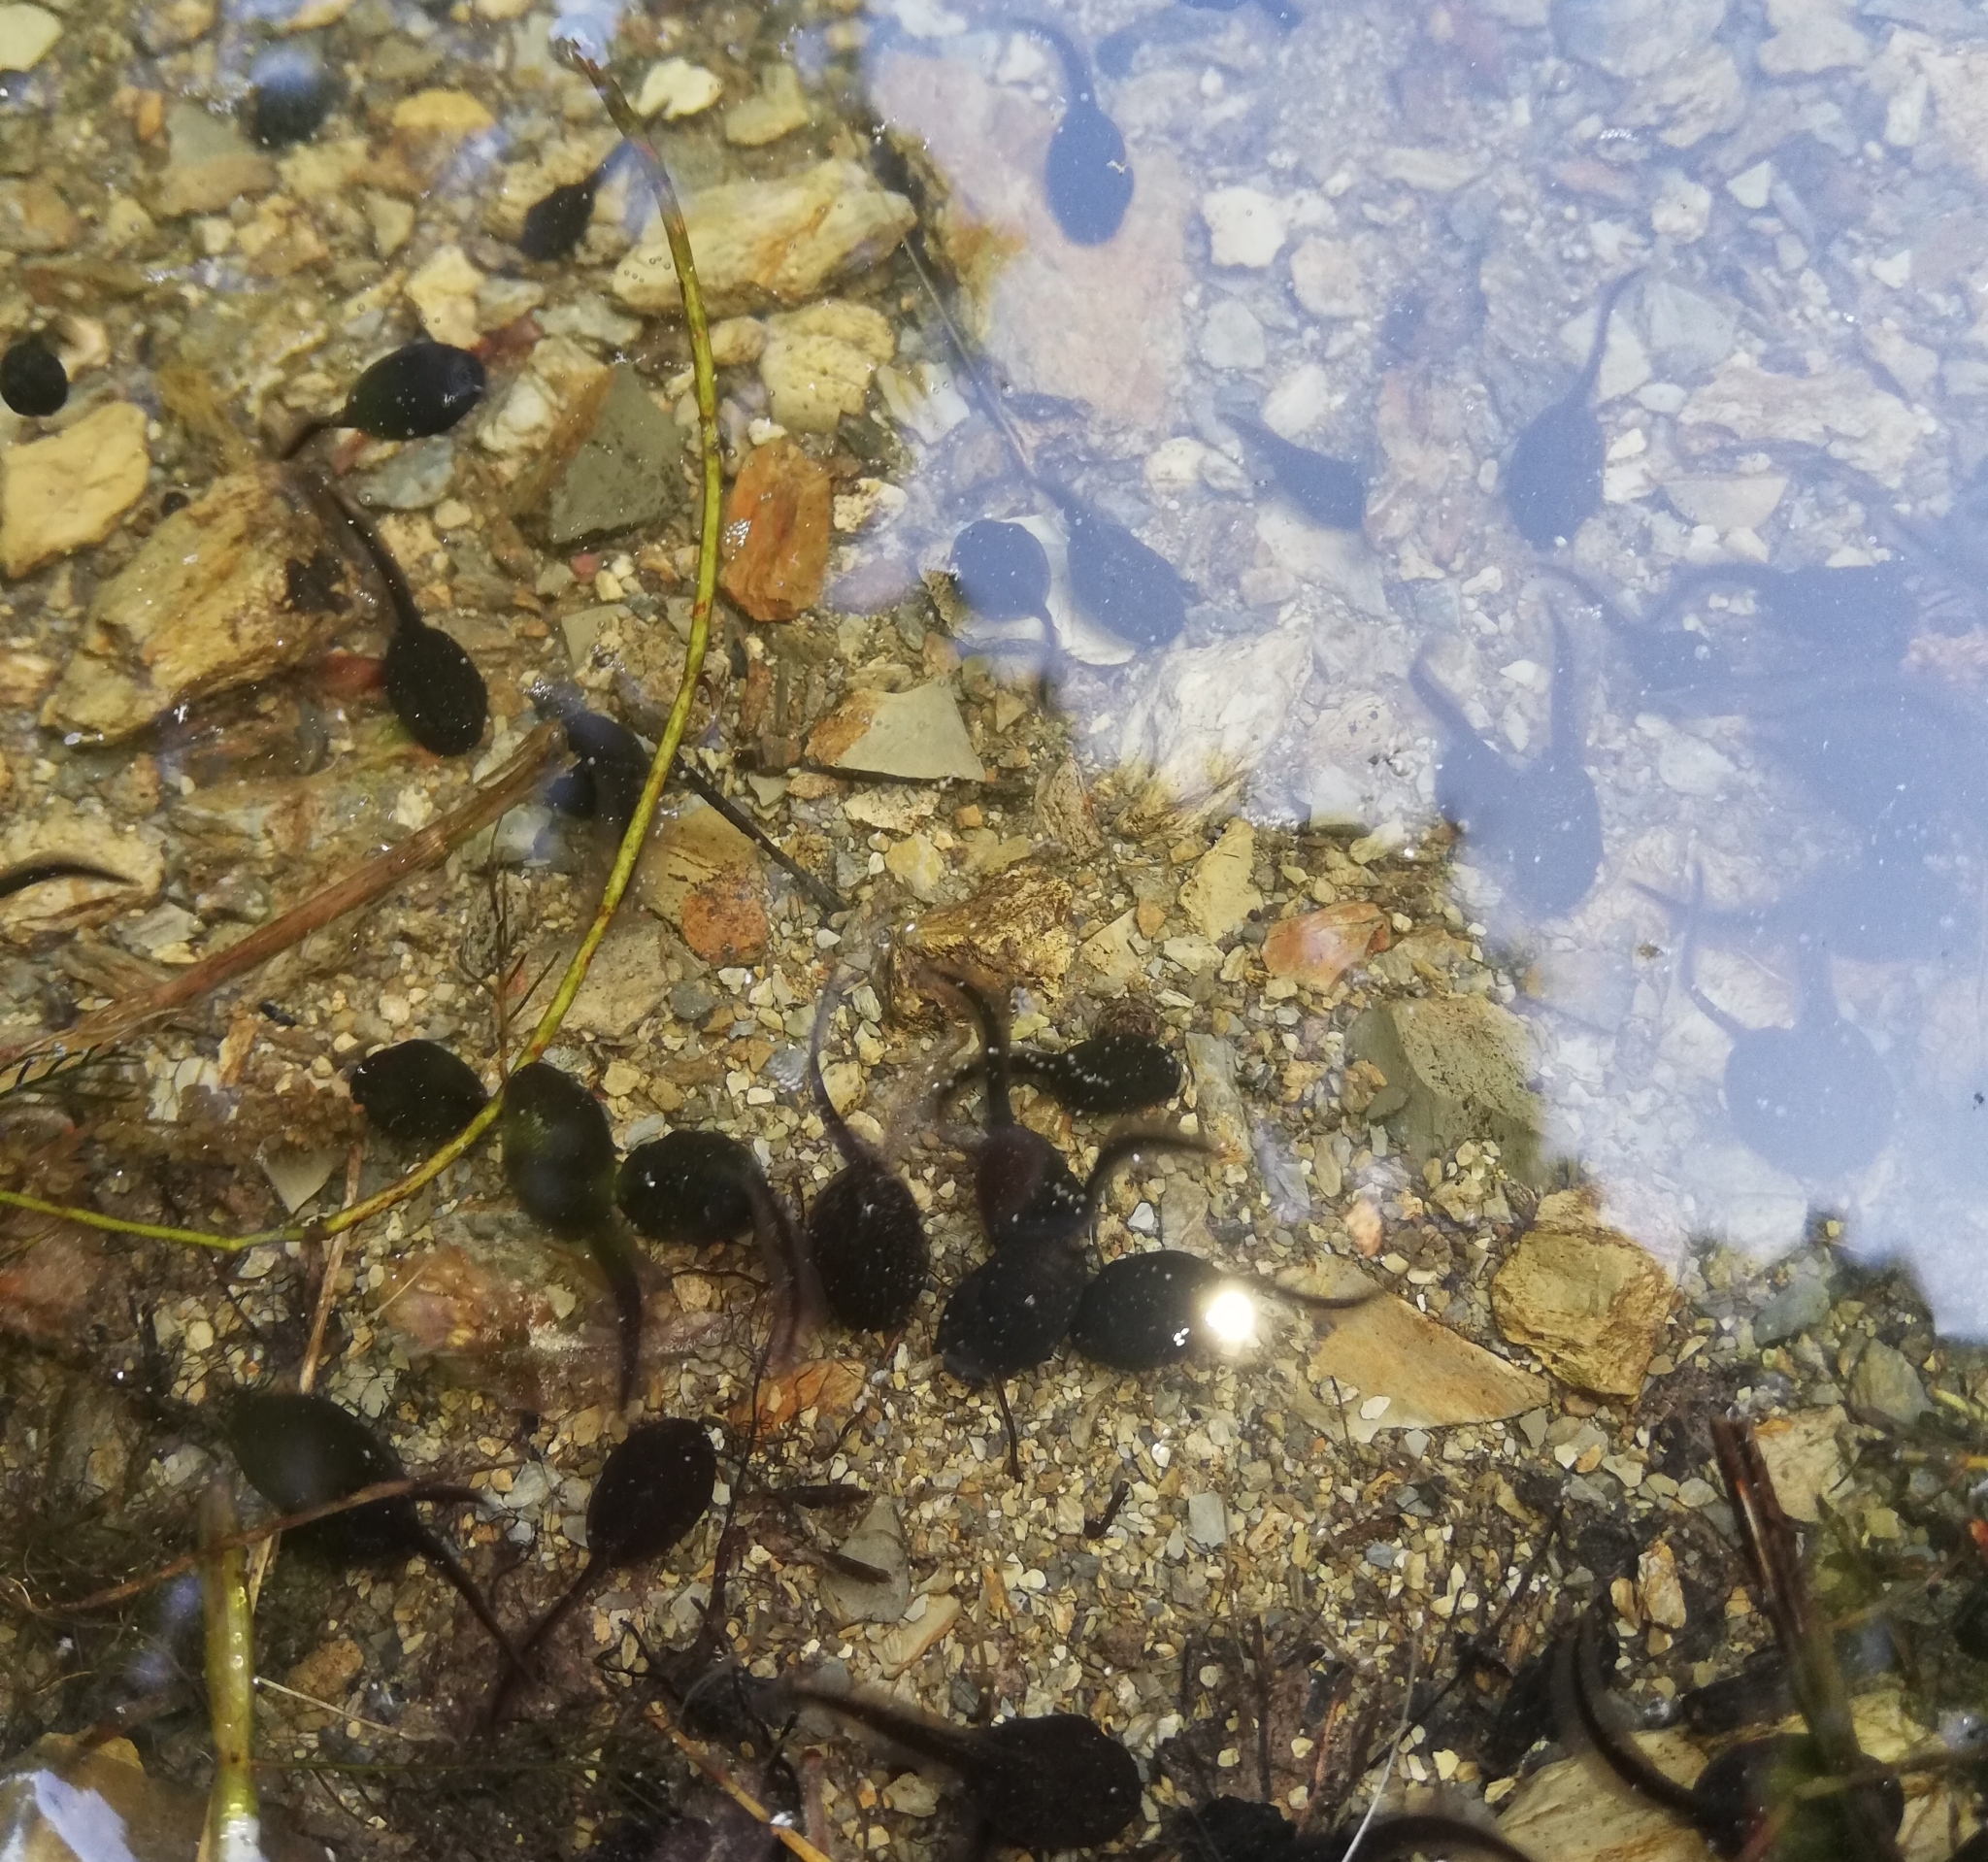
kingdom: Animalia
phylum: Chordata
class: Amphibia
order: Anura
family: Bufonidae
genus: Bufo
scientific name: Bufo bufo
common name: Common toad
